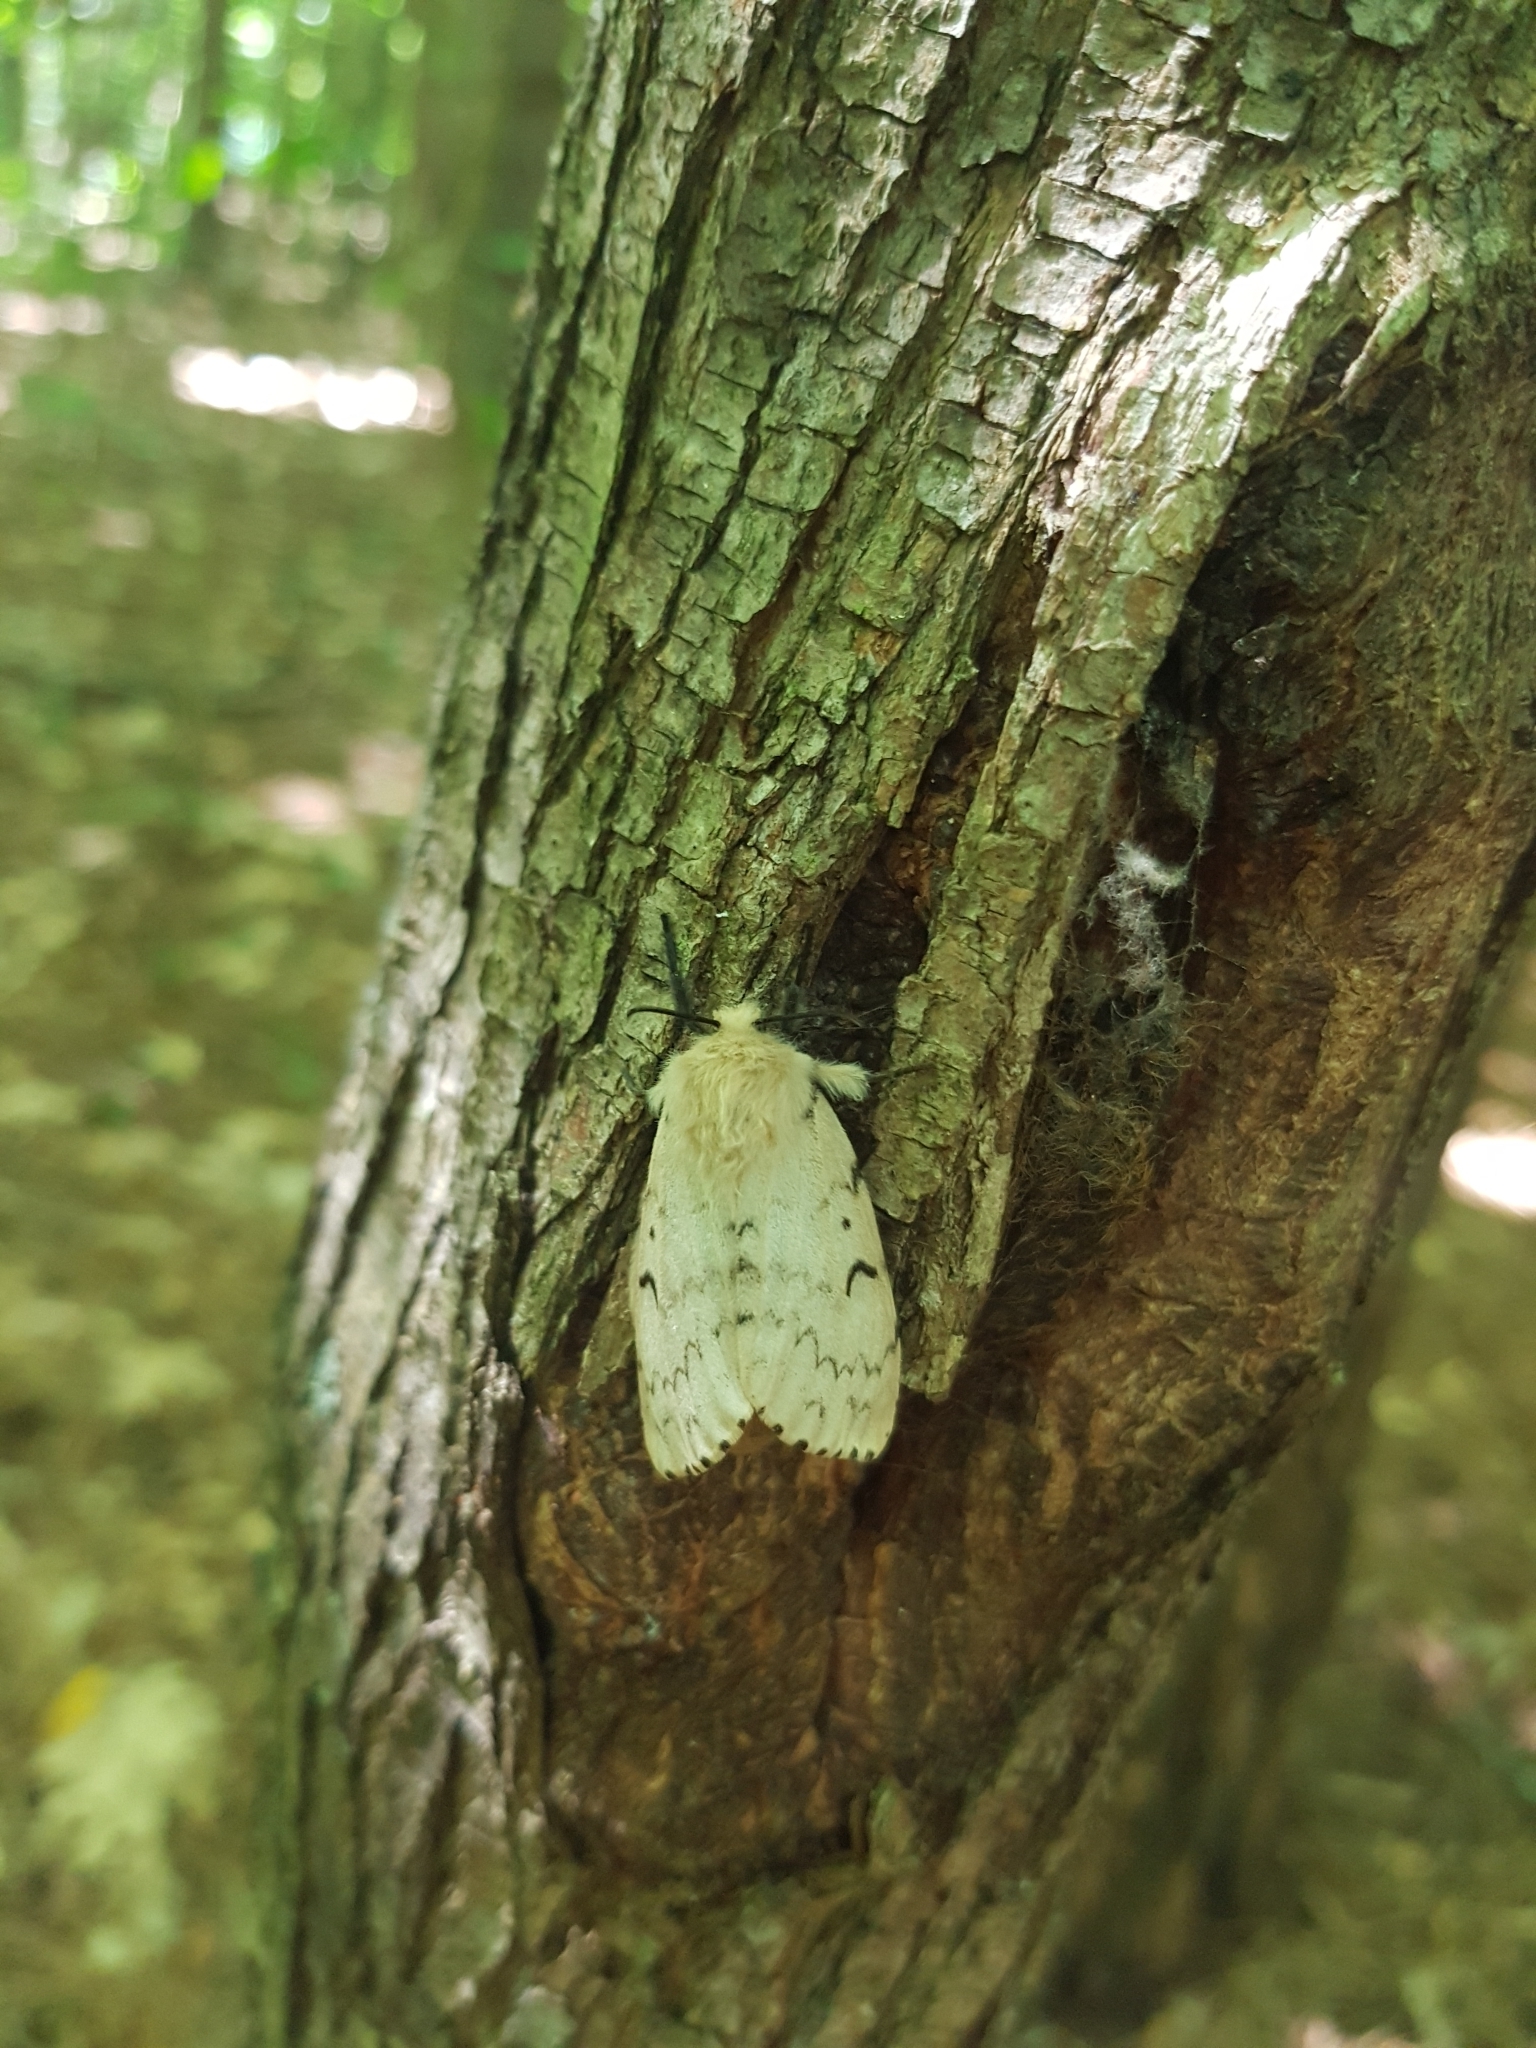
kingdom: Animalia
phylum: Arthropoda
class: Insecta
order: Lepidoptera
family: Erebidae
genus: Lymantria
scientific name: Lymantria dispar
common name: Gypsy moth
